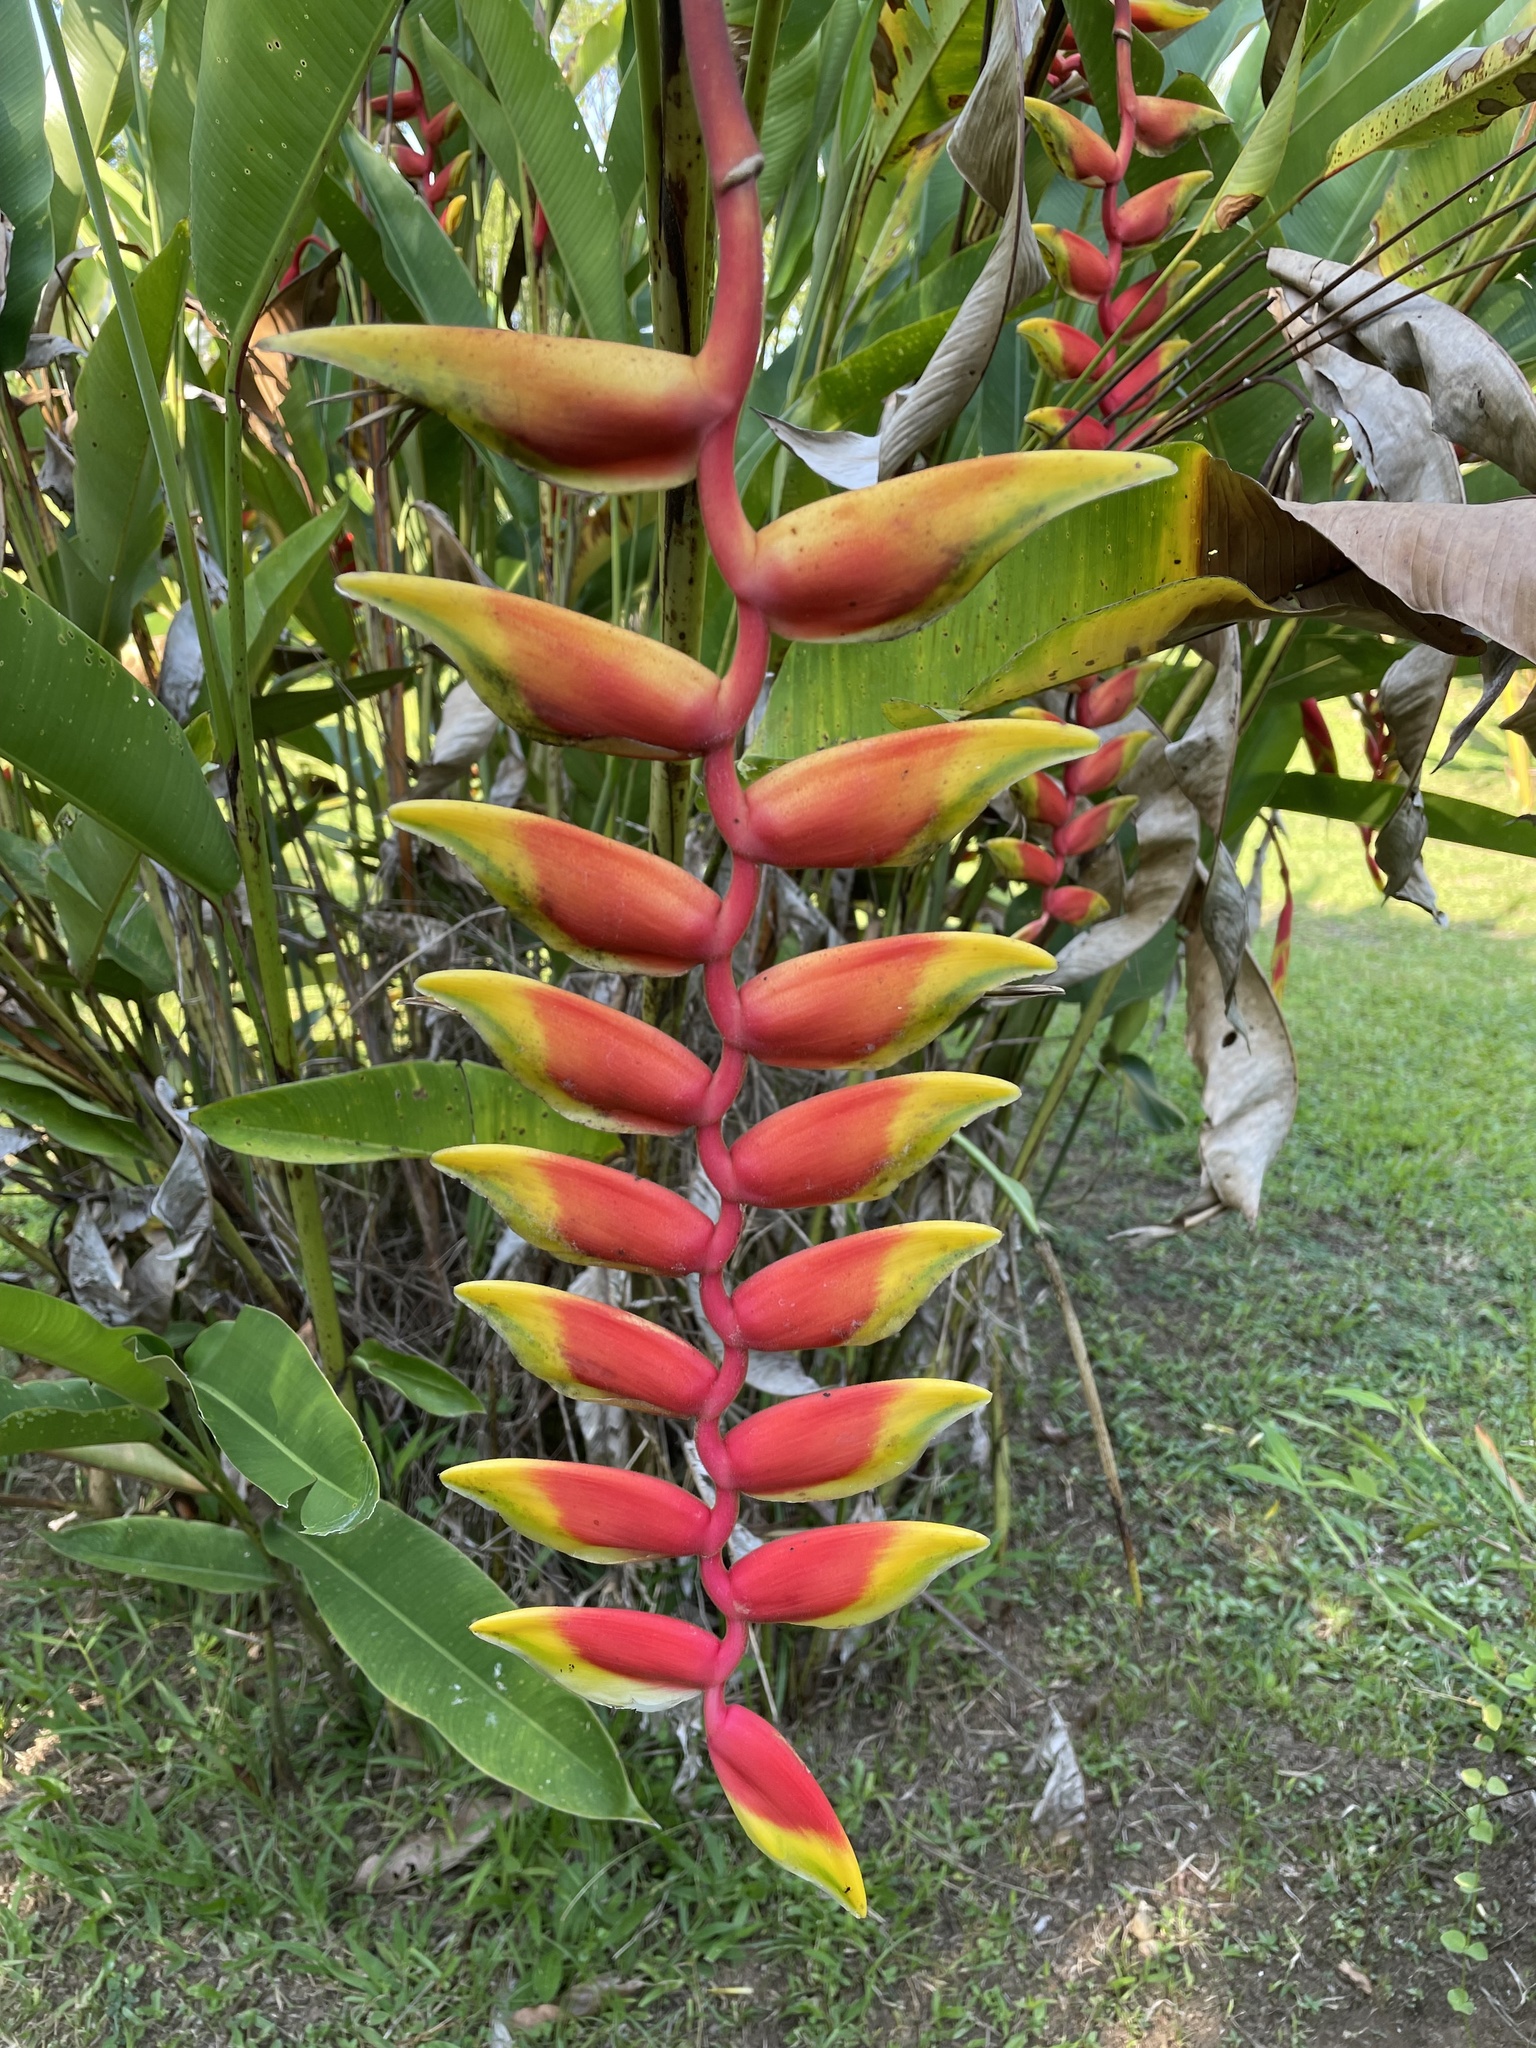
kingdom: Plantae
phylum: Tracheophyta
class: Liliopsida
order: Zingiberales
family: Heliconiaceae
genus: Heliconia
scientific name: Heliconia rostrata
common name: False bird of paradise
